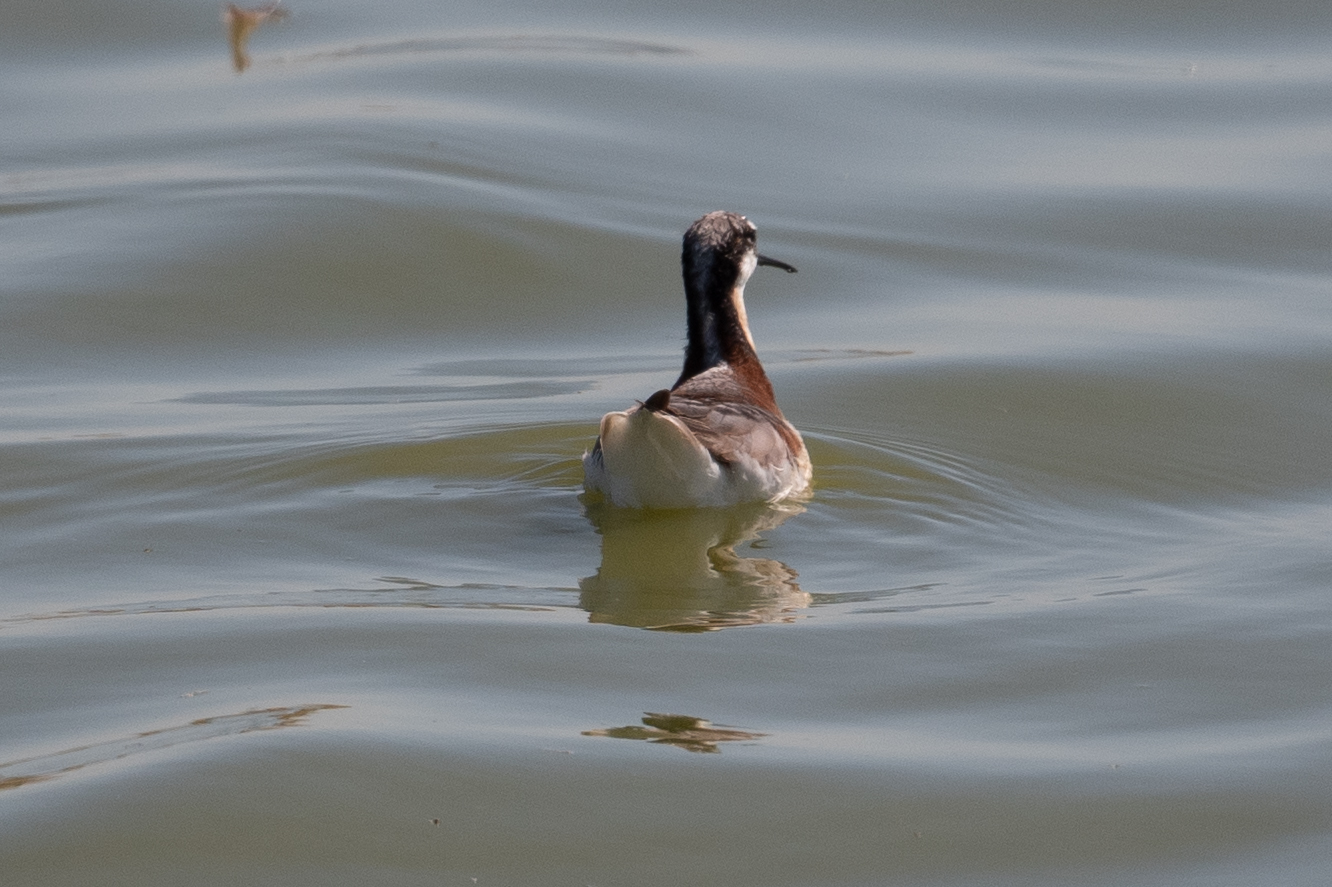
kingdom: Animalia
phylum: Chordata
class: Aves
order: Charadriiformes
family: Scolopacidae
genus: Phalaropus
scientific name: Phalaropus tricolor
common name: Wilson's phalarope
